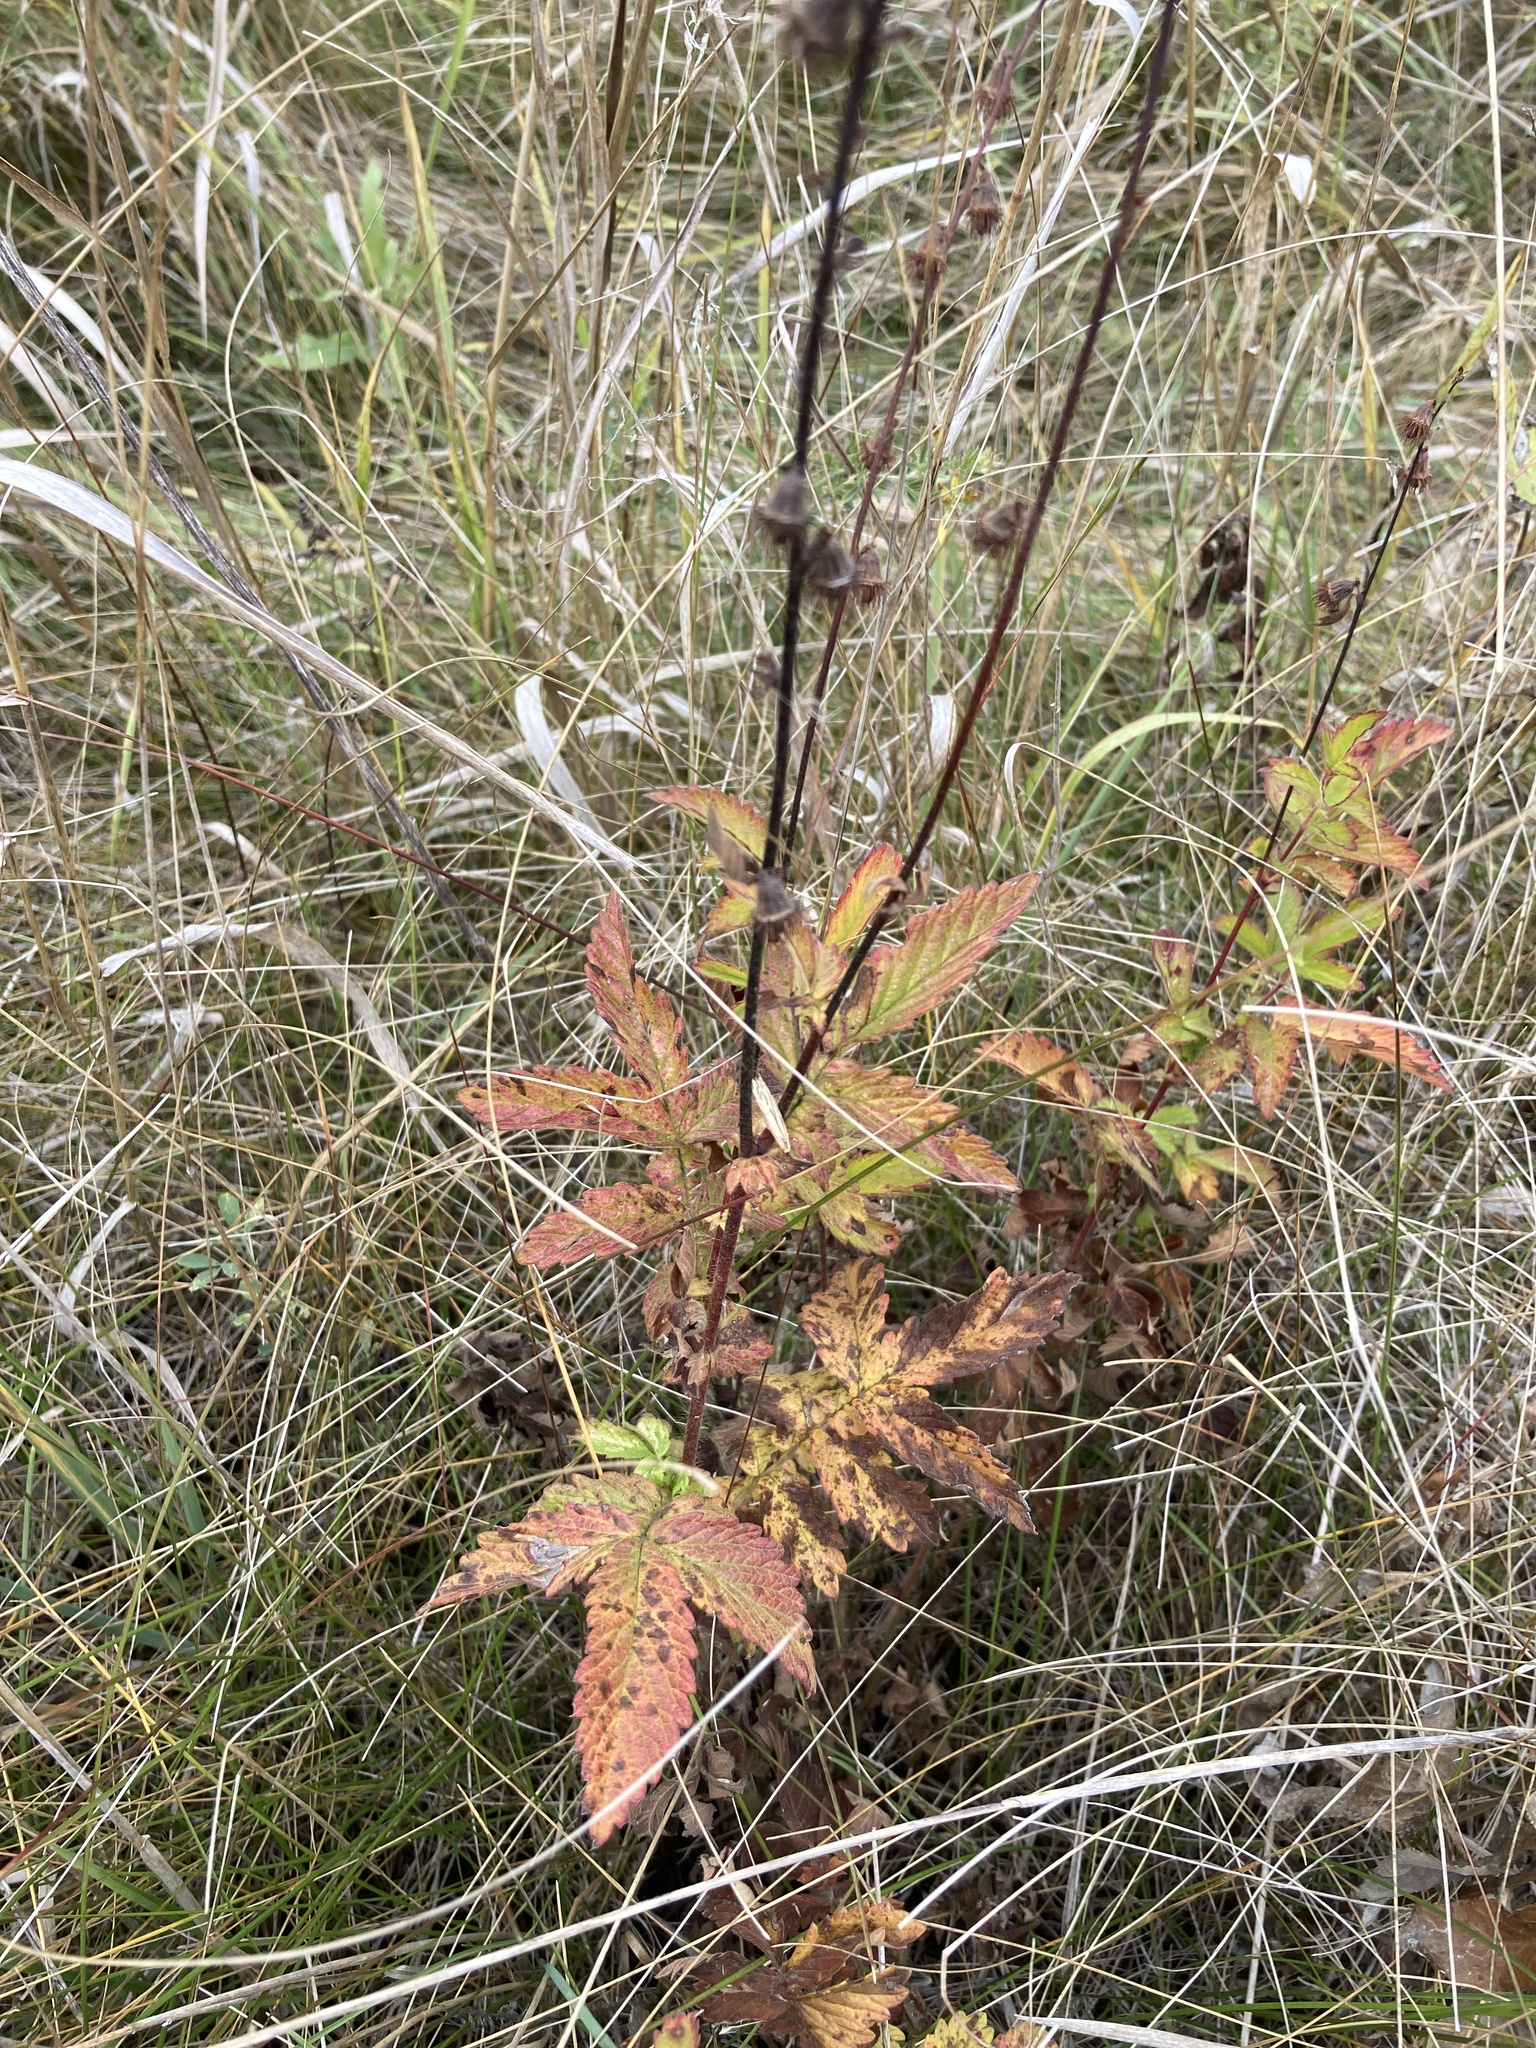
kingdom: Plantae
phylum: Tracheophyta
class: Magnoliopsida
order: Rosales
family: Rosaceae
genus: Agrimonia
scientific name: Agrimonia eupatoria
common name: Agrimony
